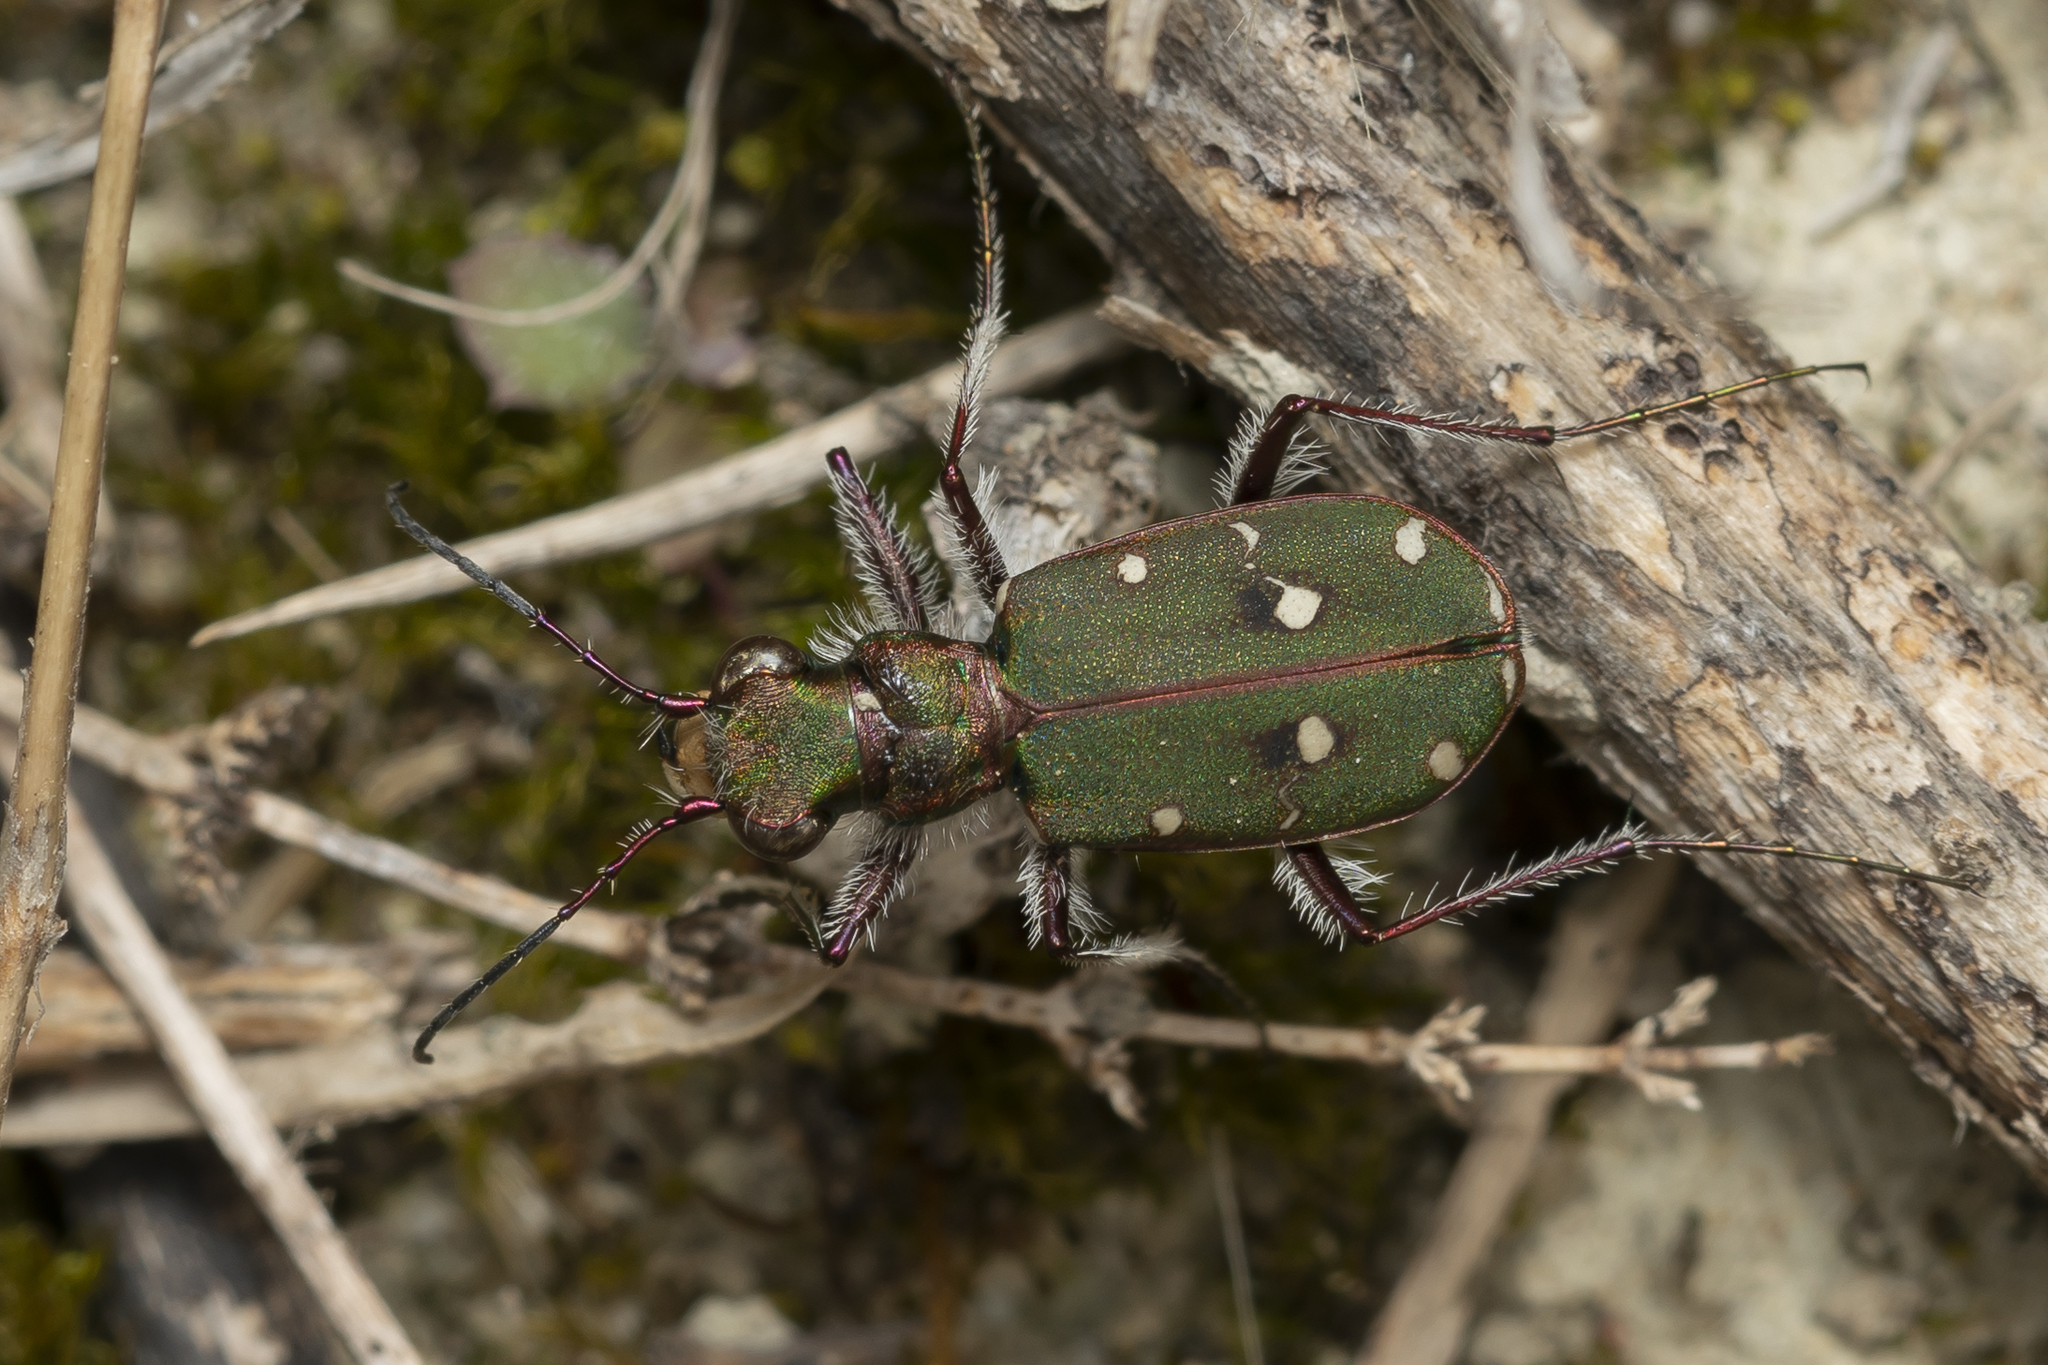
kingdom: Animalia
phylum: Arthropoda
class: Insecta
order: Coleoptera
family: Carabidae
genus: Cicindela
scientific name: Cicindela campestris
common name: Common tiger beetle
